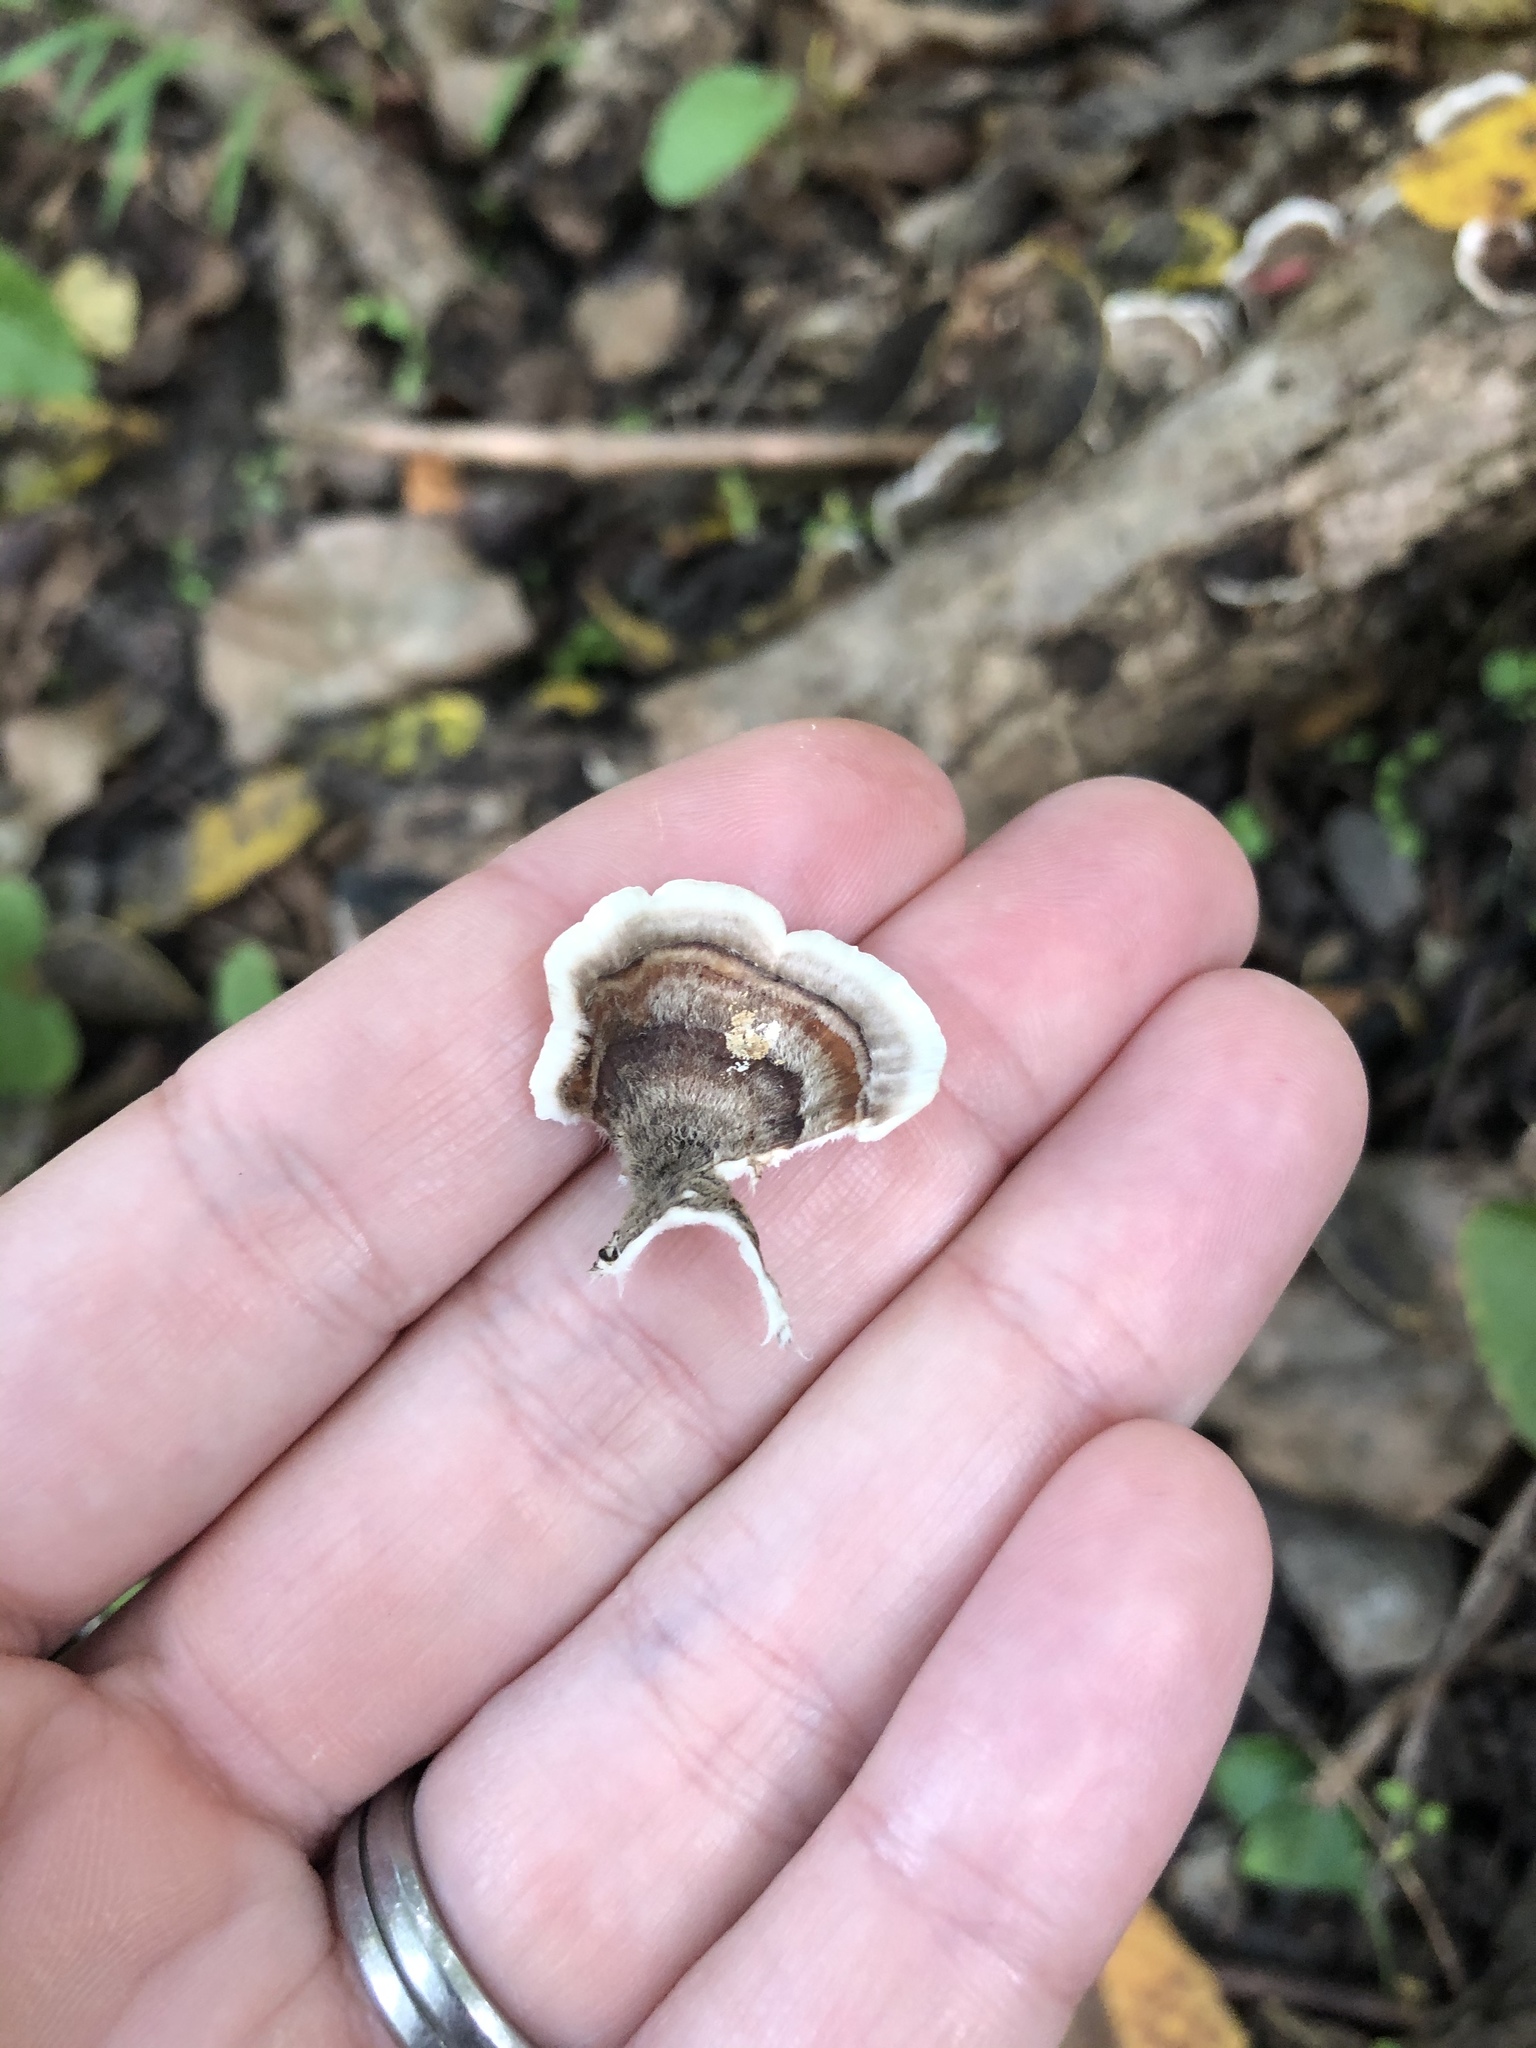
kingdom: Fungi
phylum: Basidiomycota
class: Agaricomycetes
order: Polyporales
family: Polyporaceae
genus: Trametes
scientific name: Trametes versicolor
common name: Turkeytail
